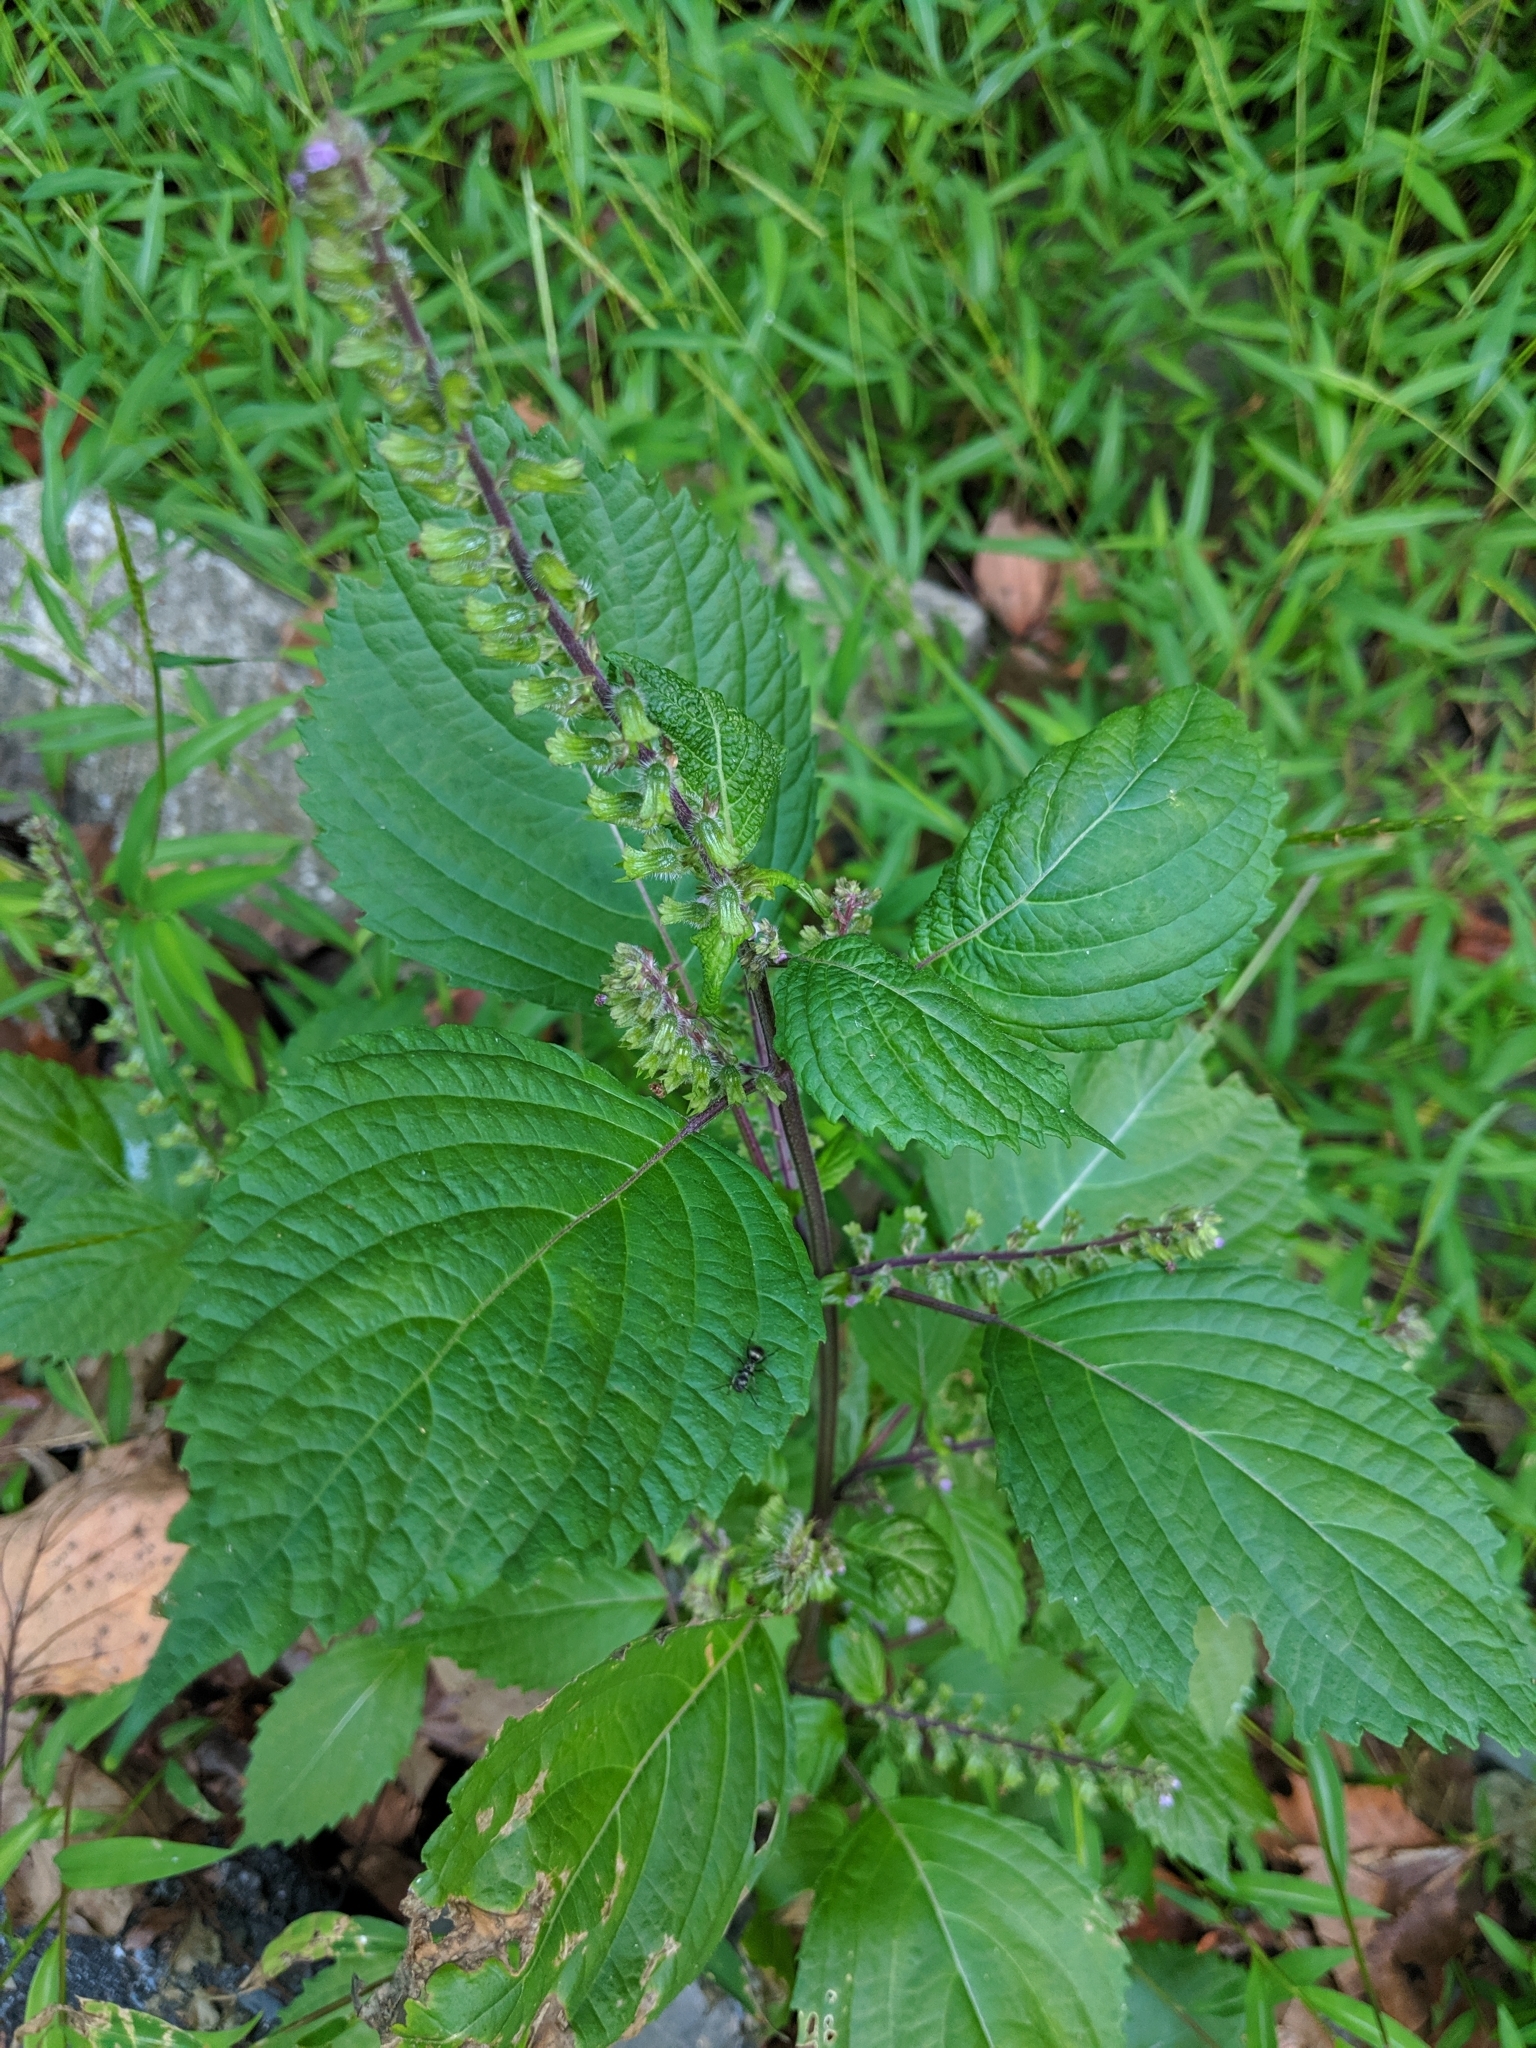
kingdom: Plantae
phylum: Tracheophyta
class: Magnoliopsida
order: Lamiales
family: Lamiaceae
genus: Perilla
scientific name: Perilla frutescens
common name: Perilla
